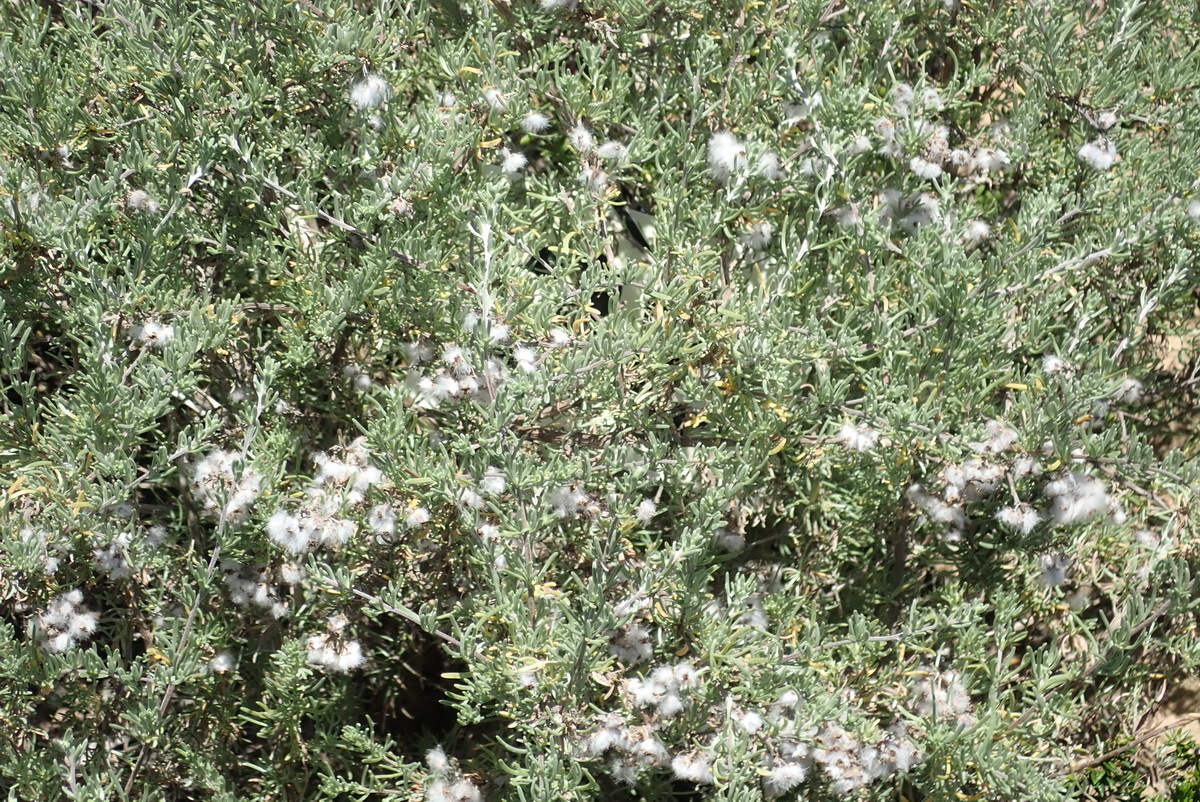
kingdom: Plantae
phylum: Tracheophyta
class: Magnoliopsida
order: Asterales
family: Asteraceae
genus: Eriocephalus
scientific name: Eriocephalus africanus
